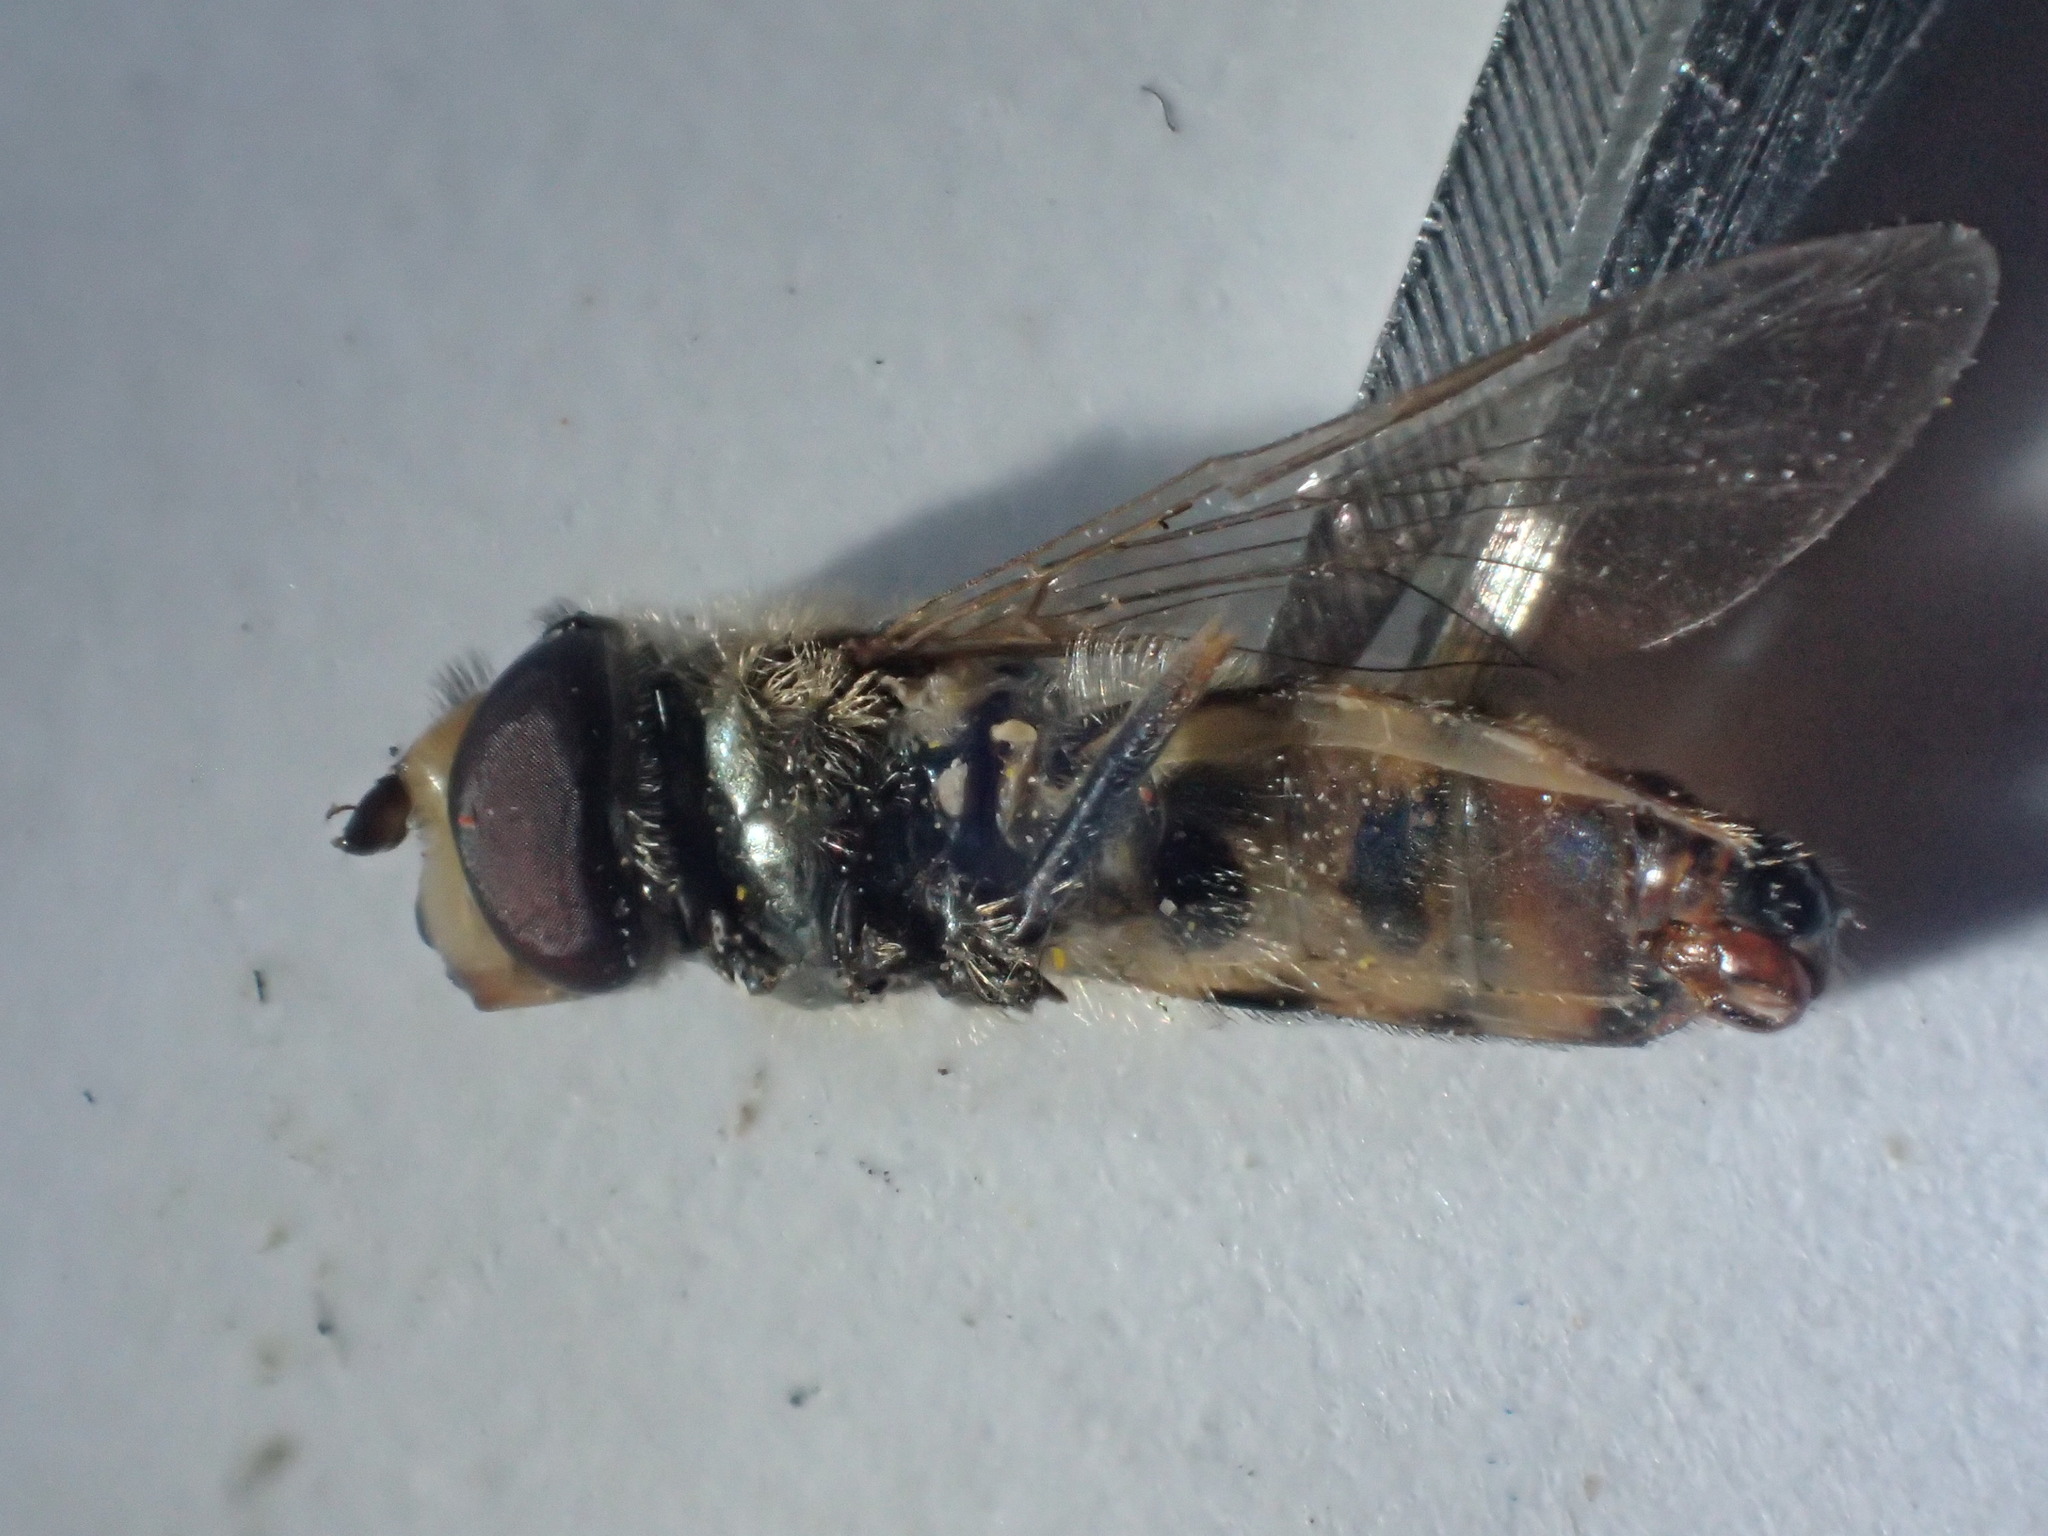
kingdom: Animalia
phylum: Arthropoda
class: Insecta
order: Diptera
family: Syrphidae
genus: Eupeodes
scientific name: Eupeodes corollae
